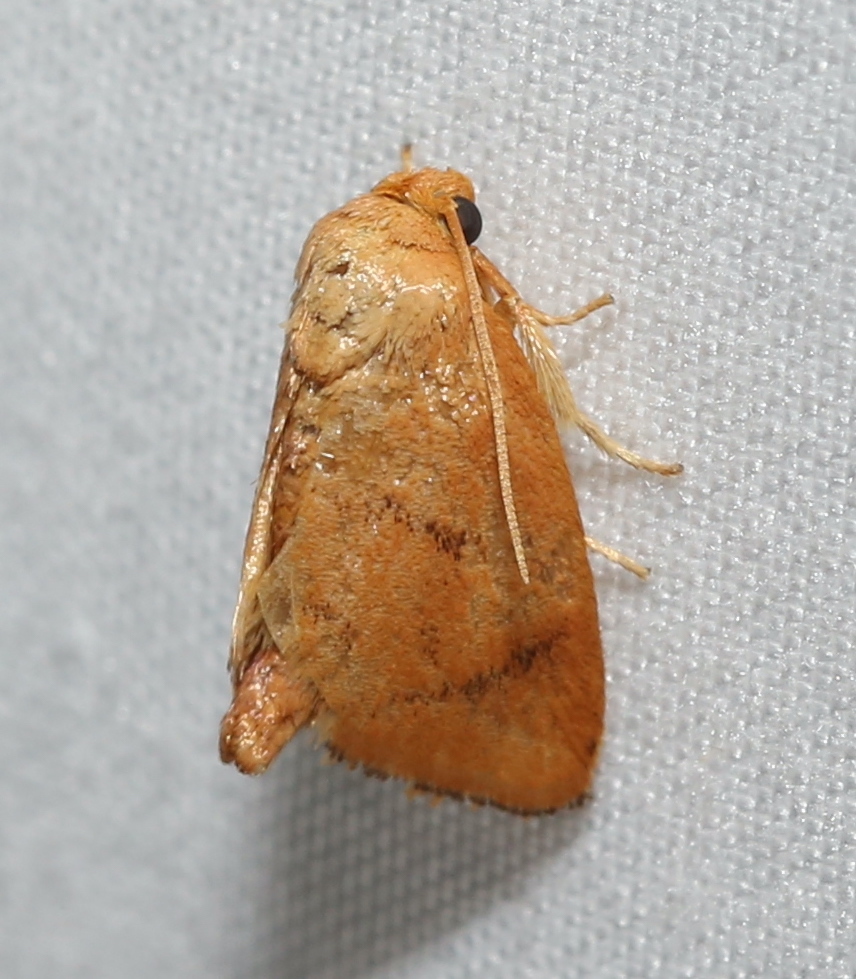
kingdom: Animalia
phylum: Arthropoda
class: Insecta
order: Lepidoptera
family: Limacodidae
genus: Tortricidia
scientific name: Tortricidia flexuosa
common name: Abbreviated button slug moth
